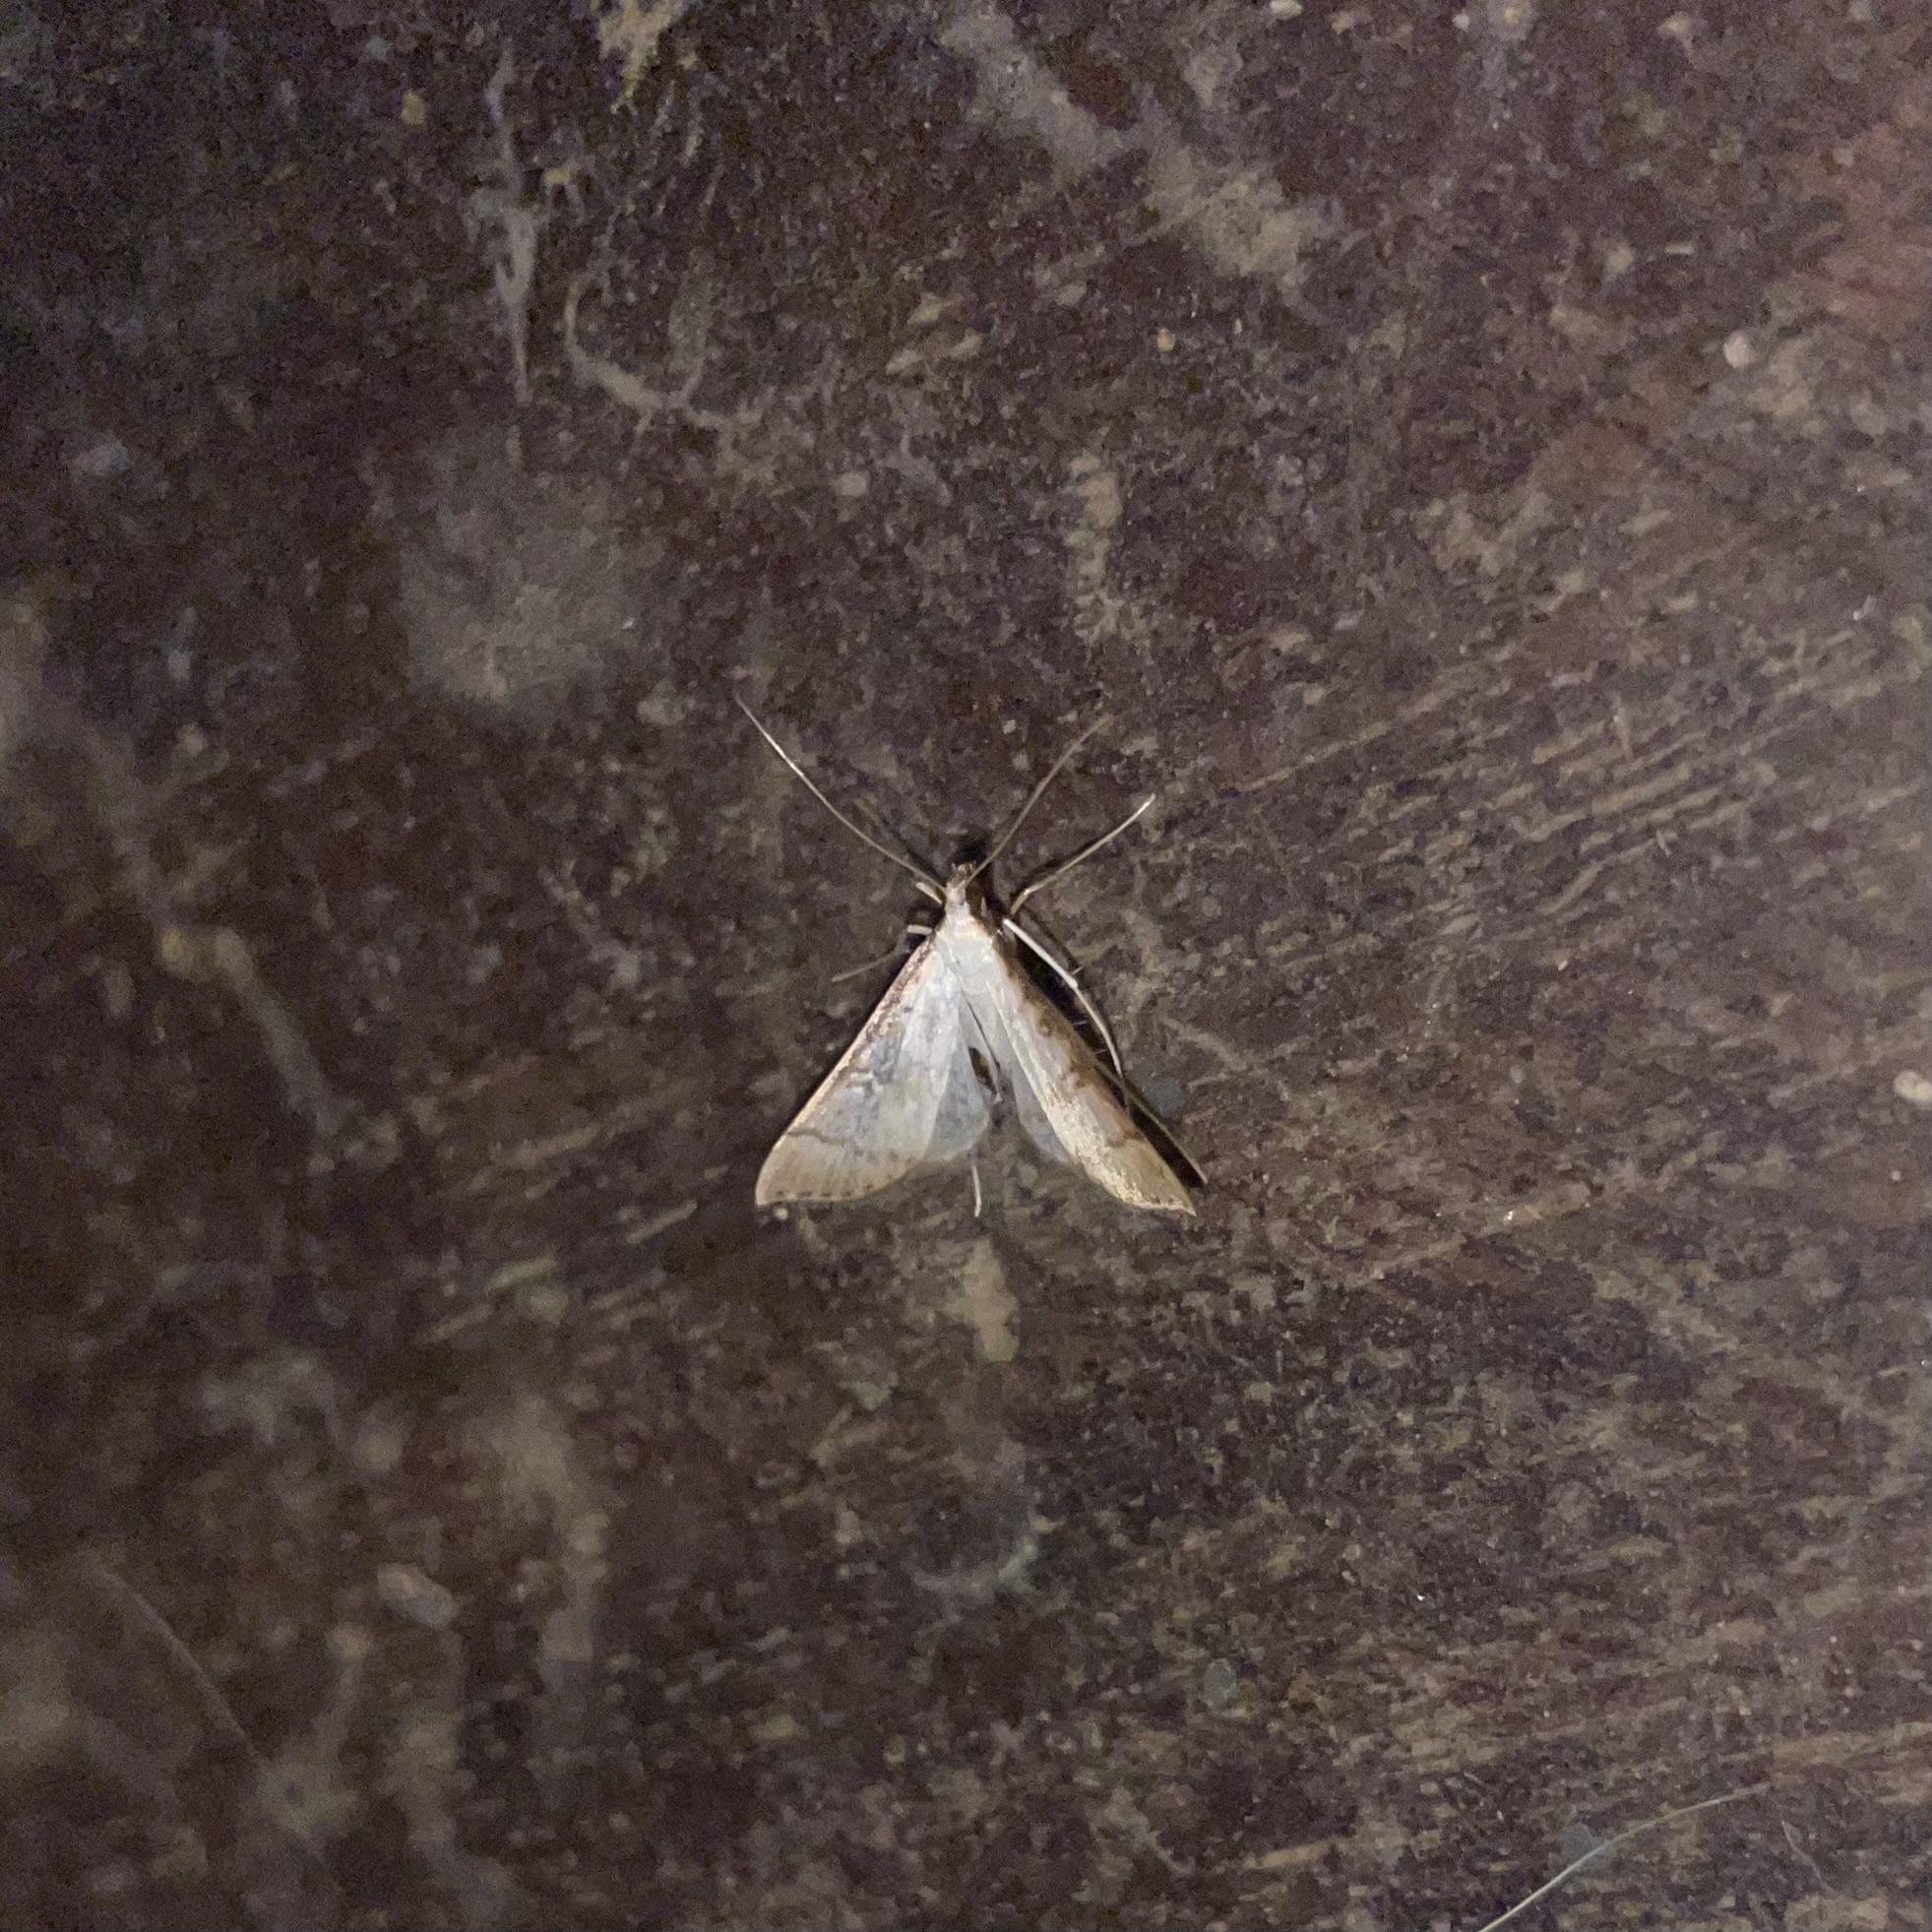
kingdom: Animalia
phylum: Arthropoda
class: Insecta
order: Lepidoptera
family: Crambidae
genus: Stenia
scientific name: Stenia colubralis
